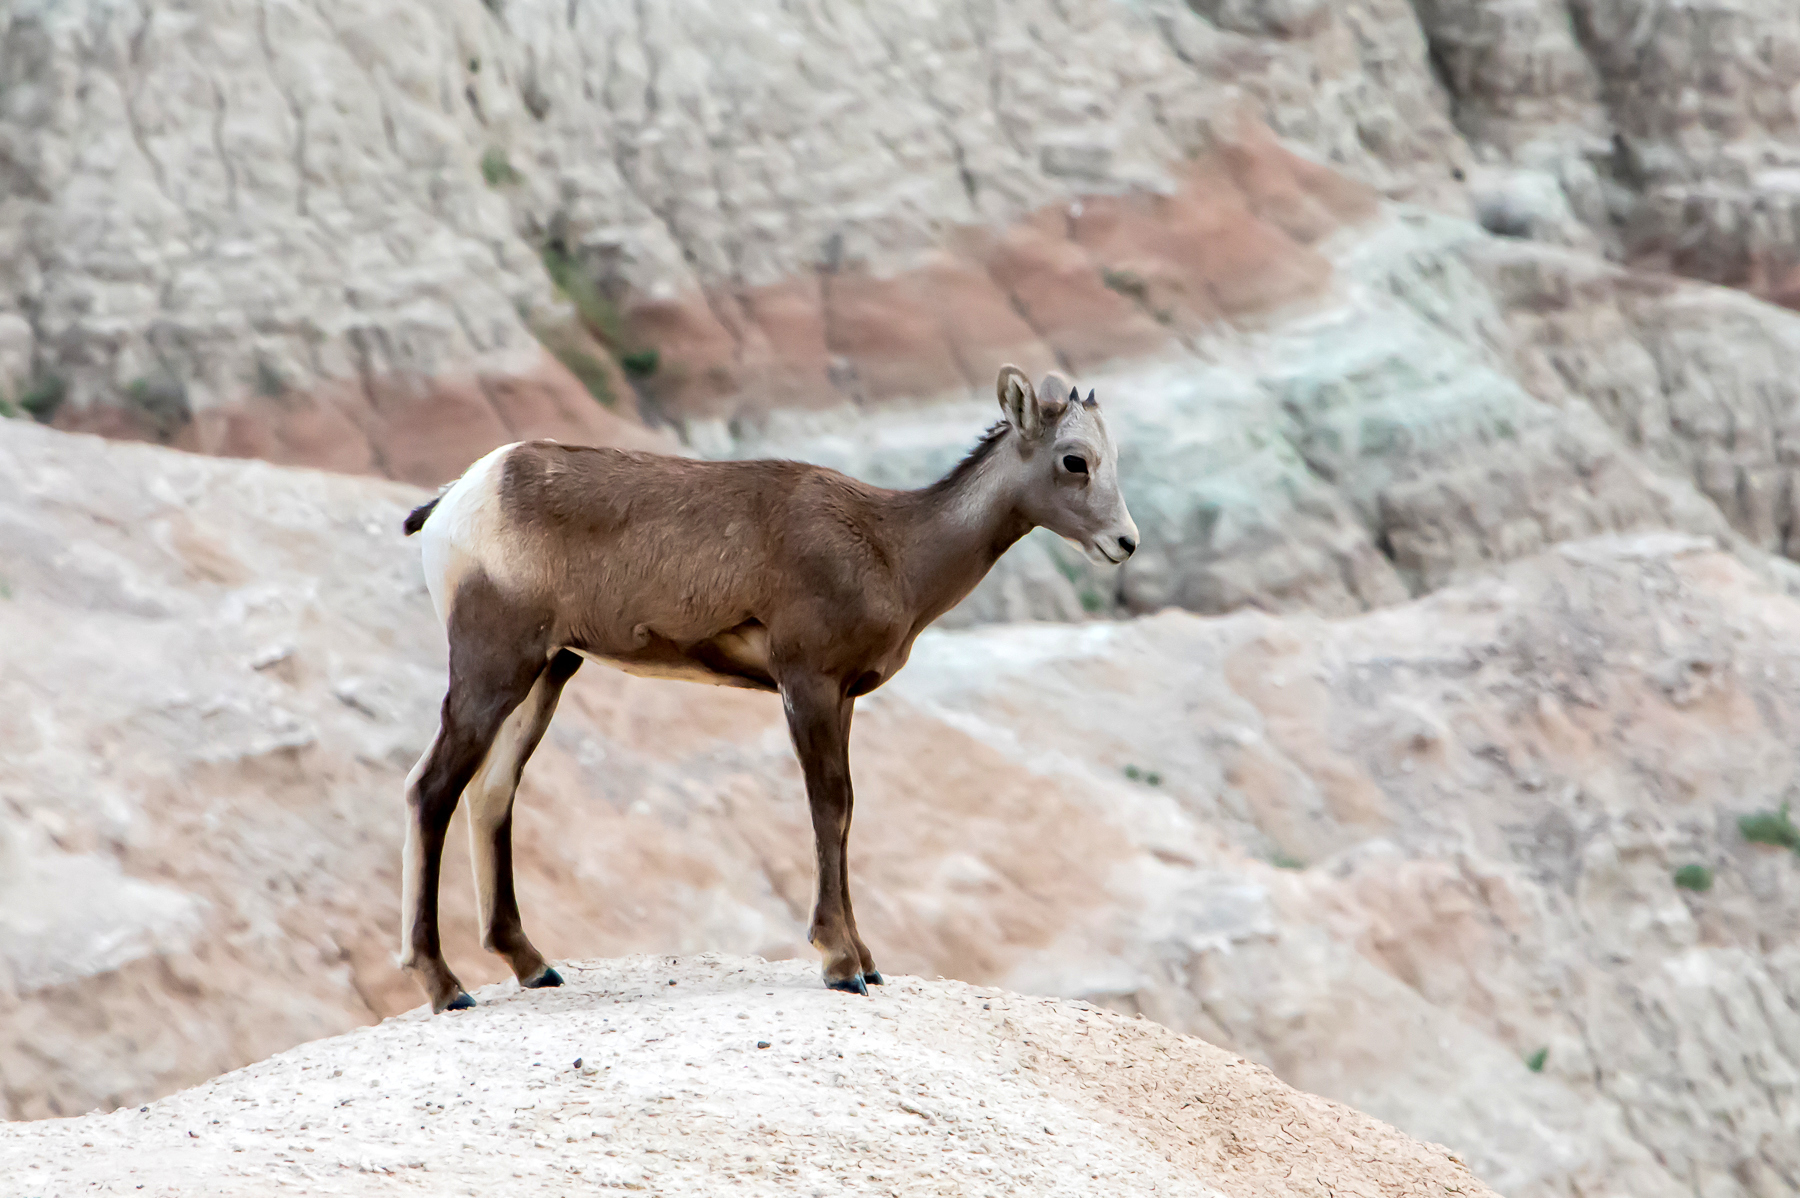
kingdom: Animalia
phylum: Chordata
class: Mammalia
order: Artiodactyla
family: Bovidae
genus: Ovis
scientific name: Ovis canadensis
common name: Bighorn sheep
